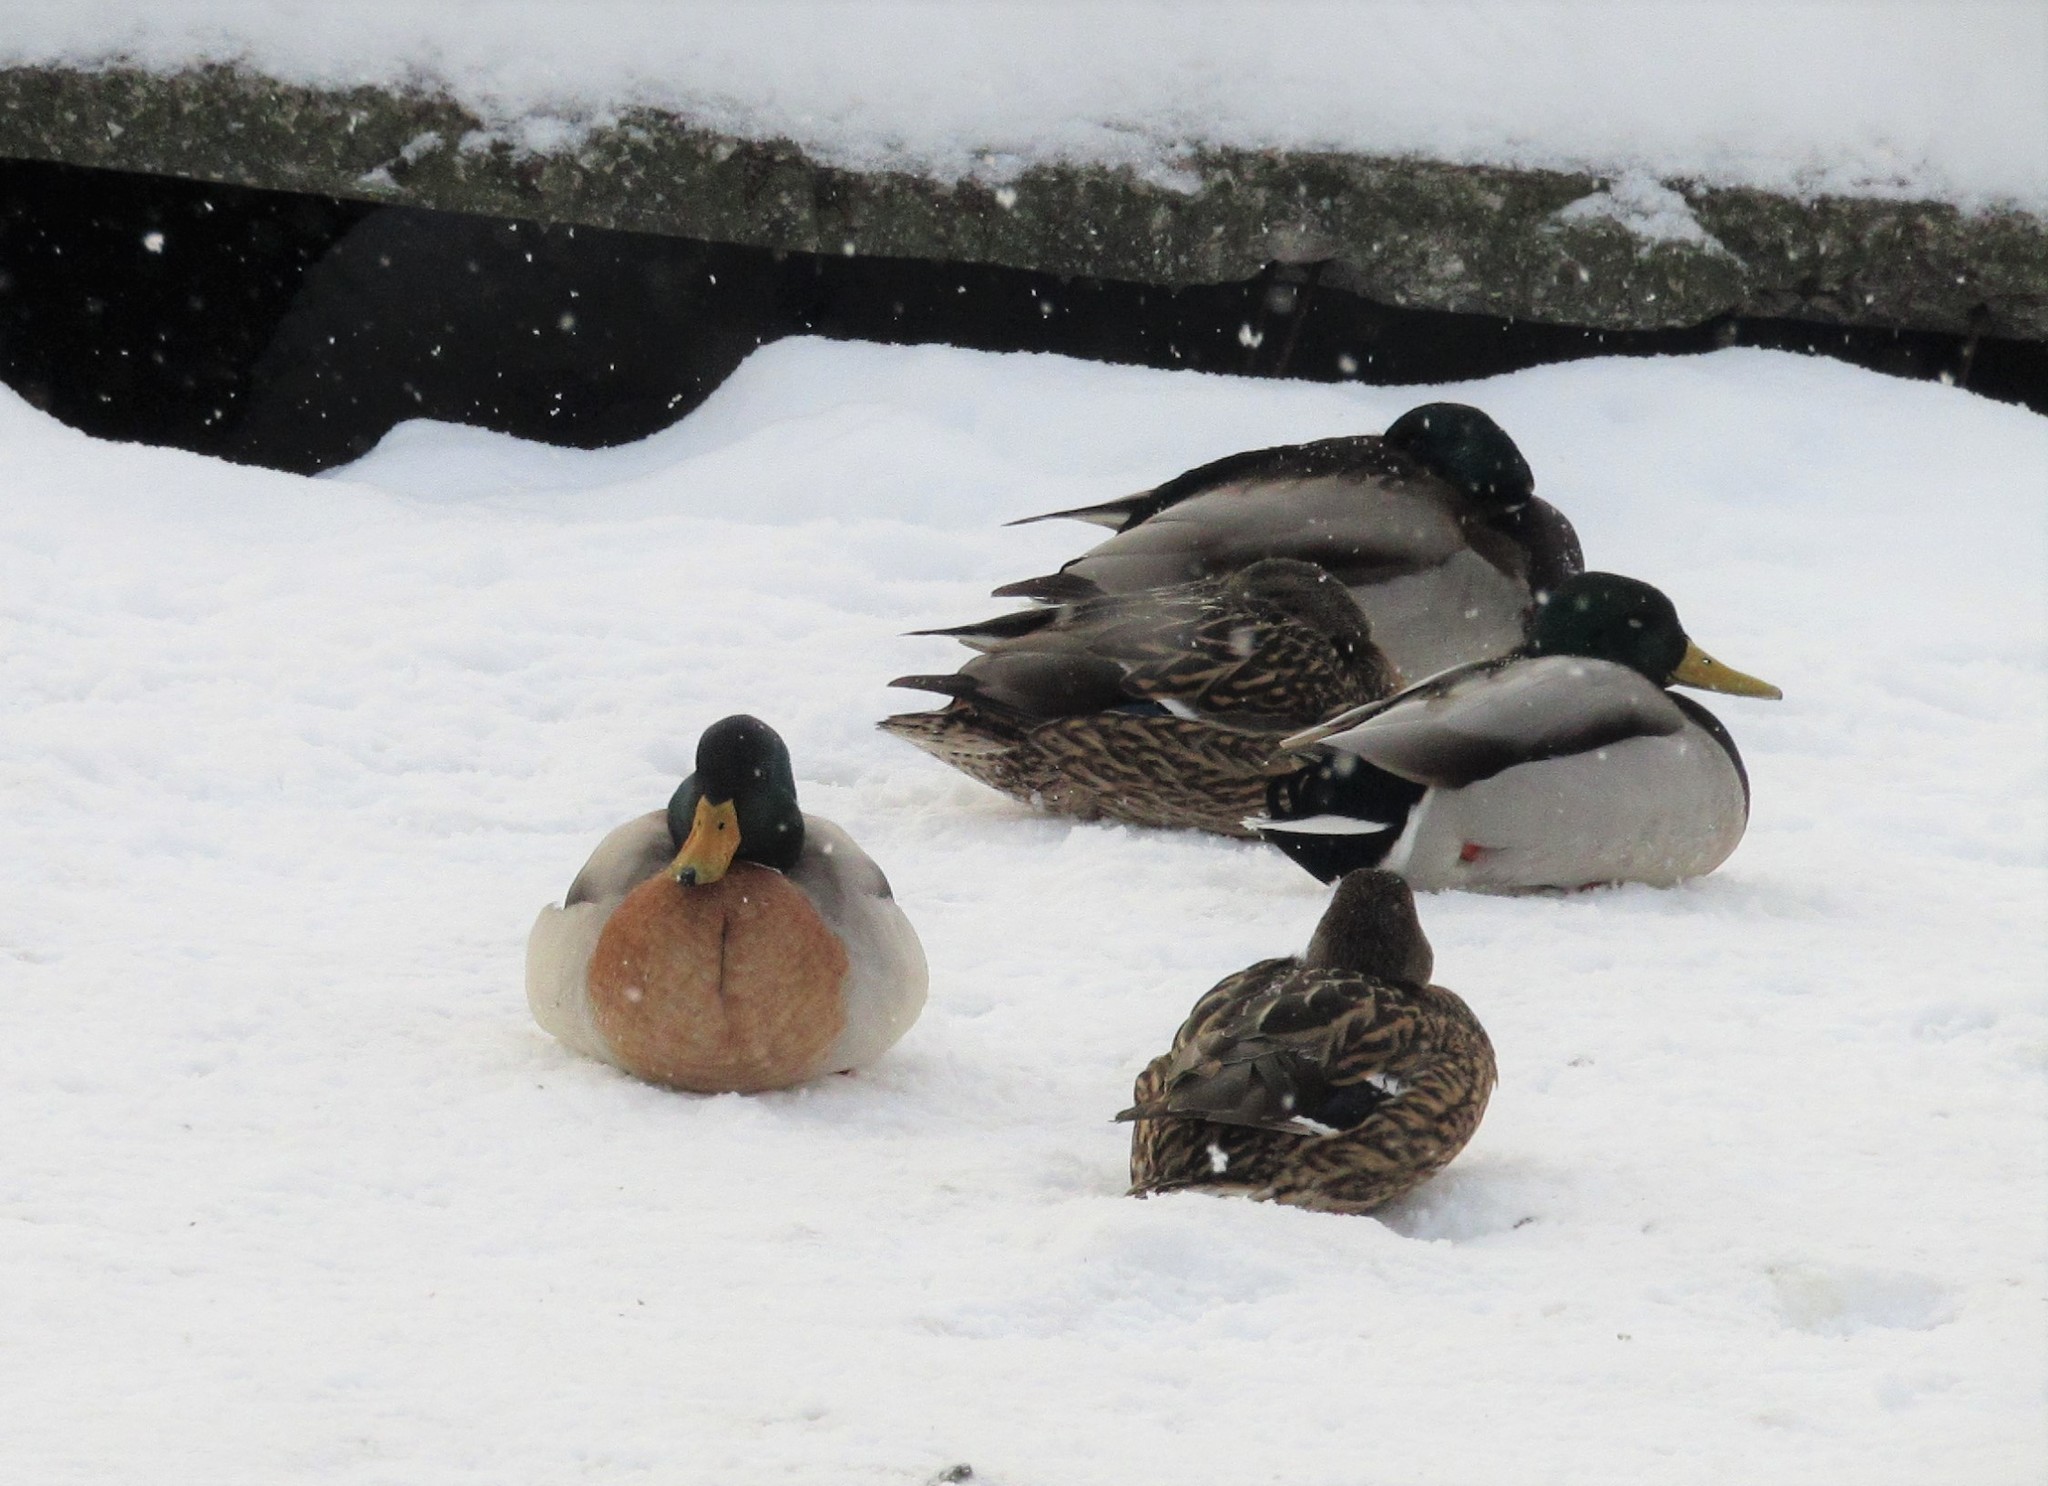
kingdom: Animalia
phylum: Chordata
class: Aves
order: Anseriformes
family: Anatidae
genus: Anas
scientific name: Anas platyrhynchos
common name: Mallard
